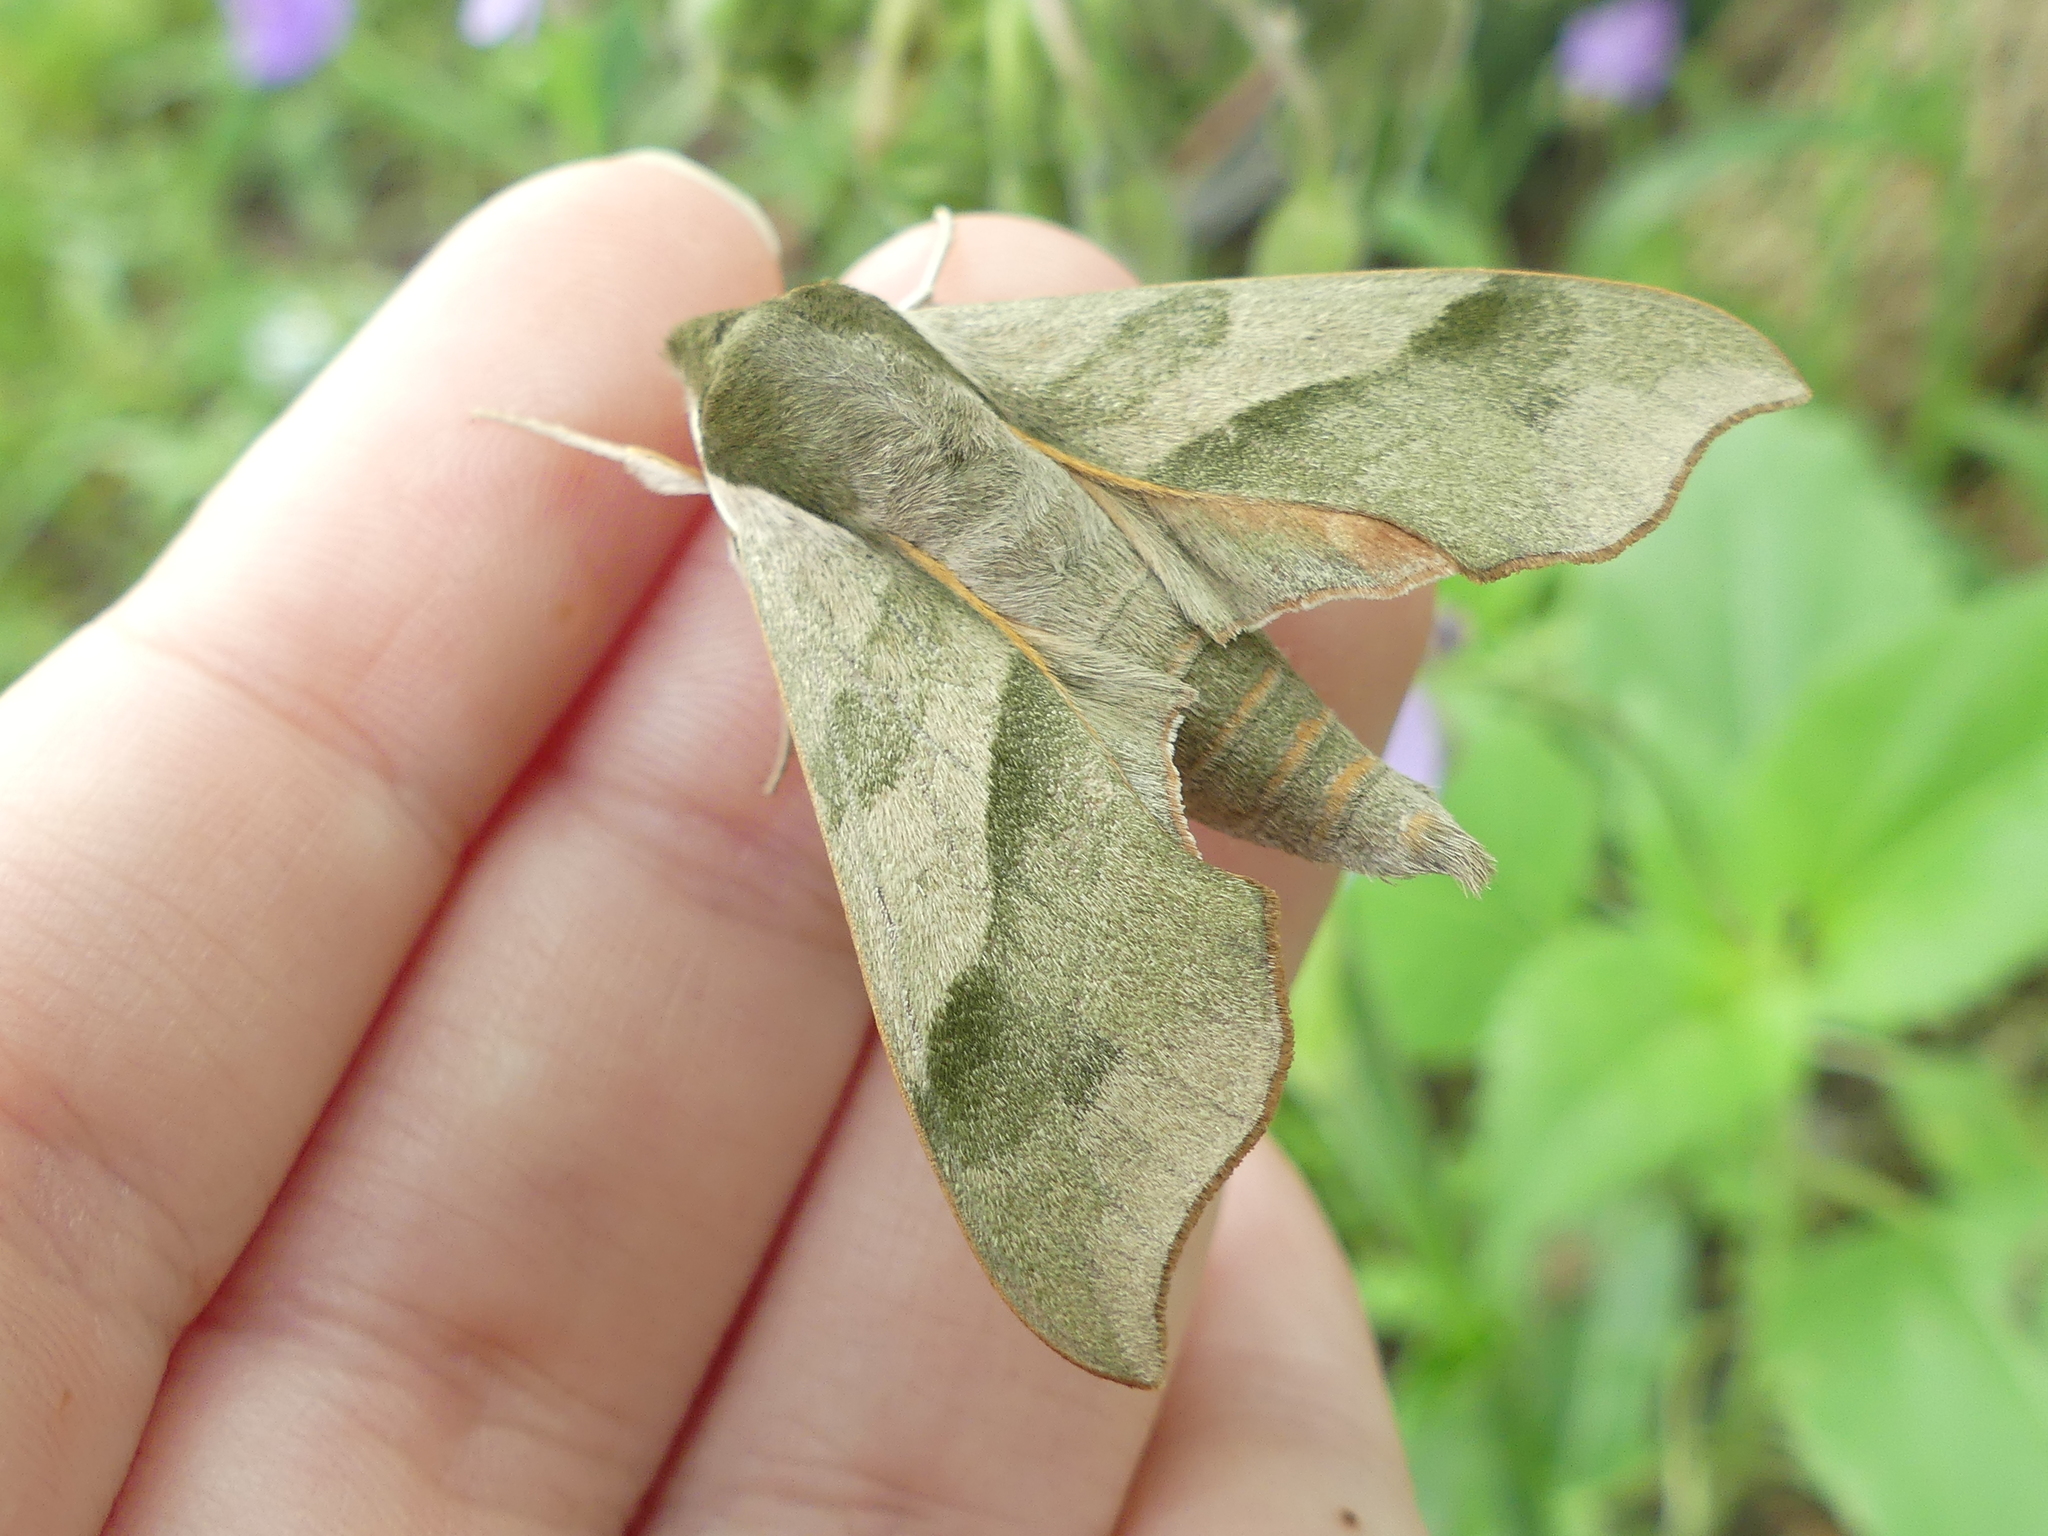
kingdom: Animalia
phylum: Arthropoda
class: Insecta
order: Lepidoptera
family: Sphingidae
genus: Darapsa
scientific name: Darapsa myron
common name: Hog sphinx
